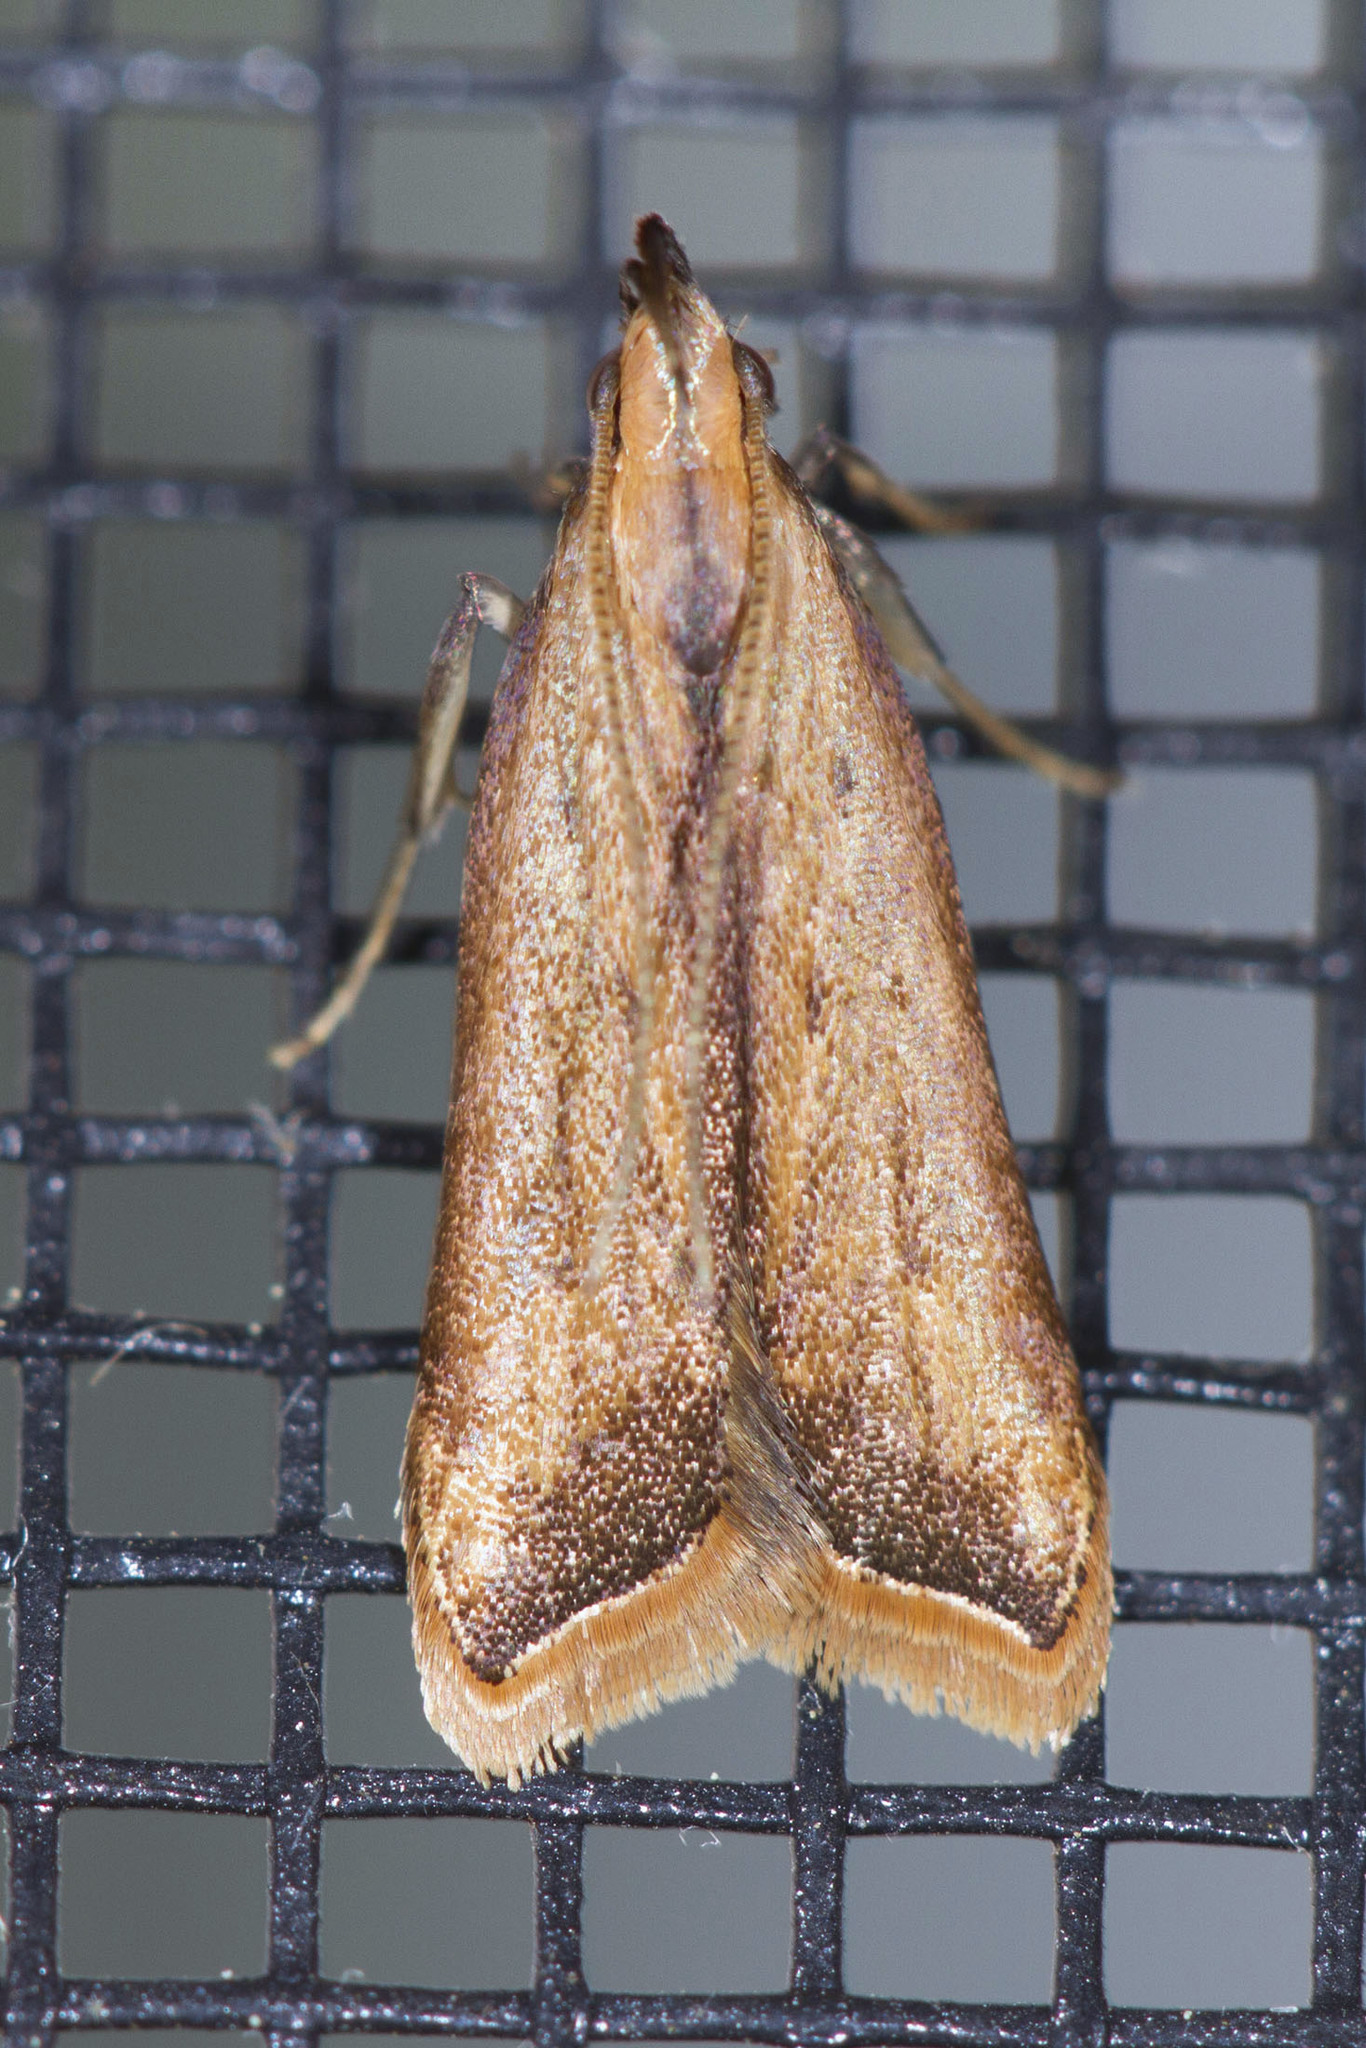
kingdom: Animalia
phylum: Arthropoda
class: Insecta
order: Lepidoptera
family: Gelechiidae
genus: Dichomeris
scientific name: Dichomeris heriguronis
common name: Black-edged dichomeris moth
